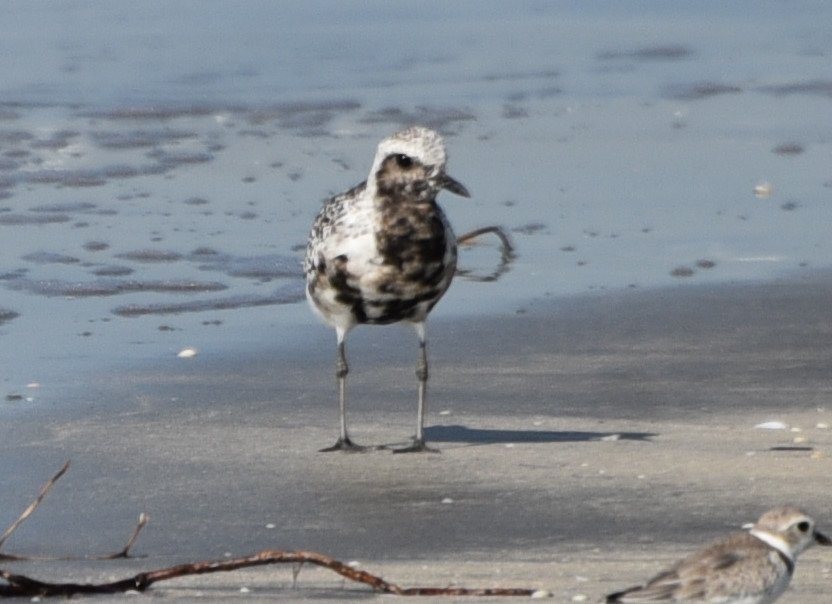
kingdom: Animalia
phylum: Chordata
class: Aves
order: Charadriiformes
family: Charadriidae
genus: Pluvialis
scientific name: Pluvialis squatarola
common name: Grey plover
